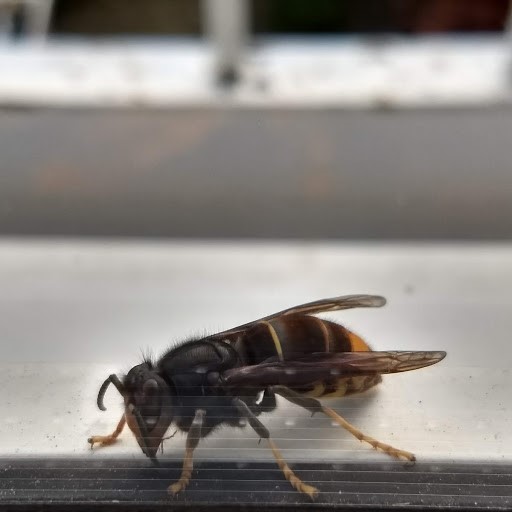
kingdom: Animalia
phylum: Arthropoda
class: Insecta
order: Hymenoptera
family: Vespidae
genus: Vespa
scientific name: Vespa velutina
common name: Asian hornet
